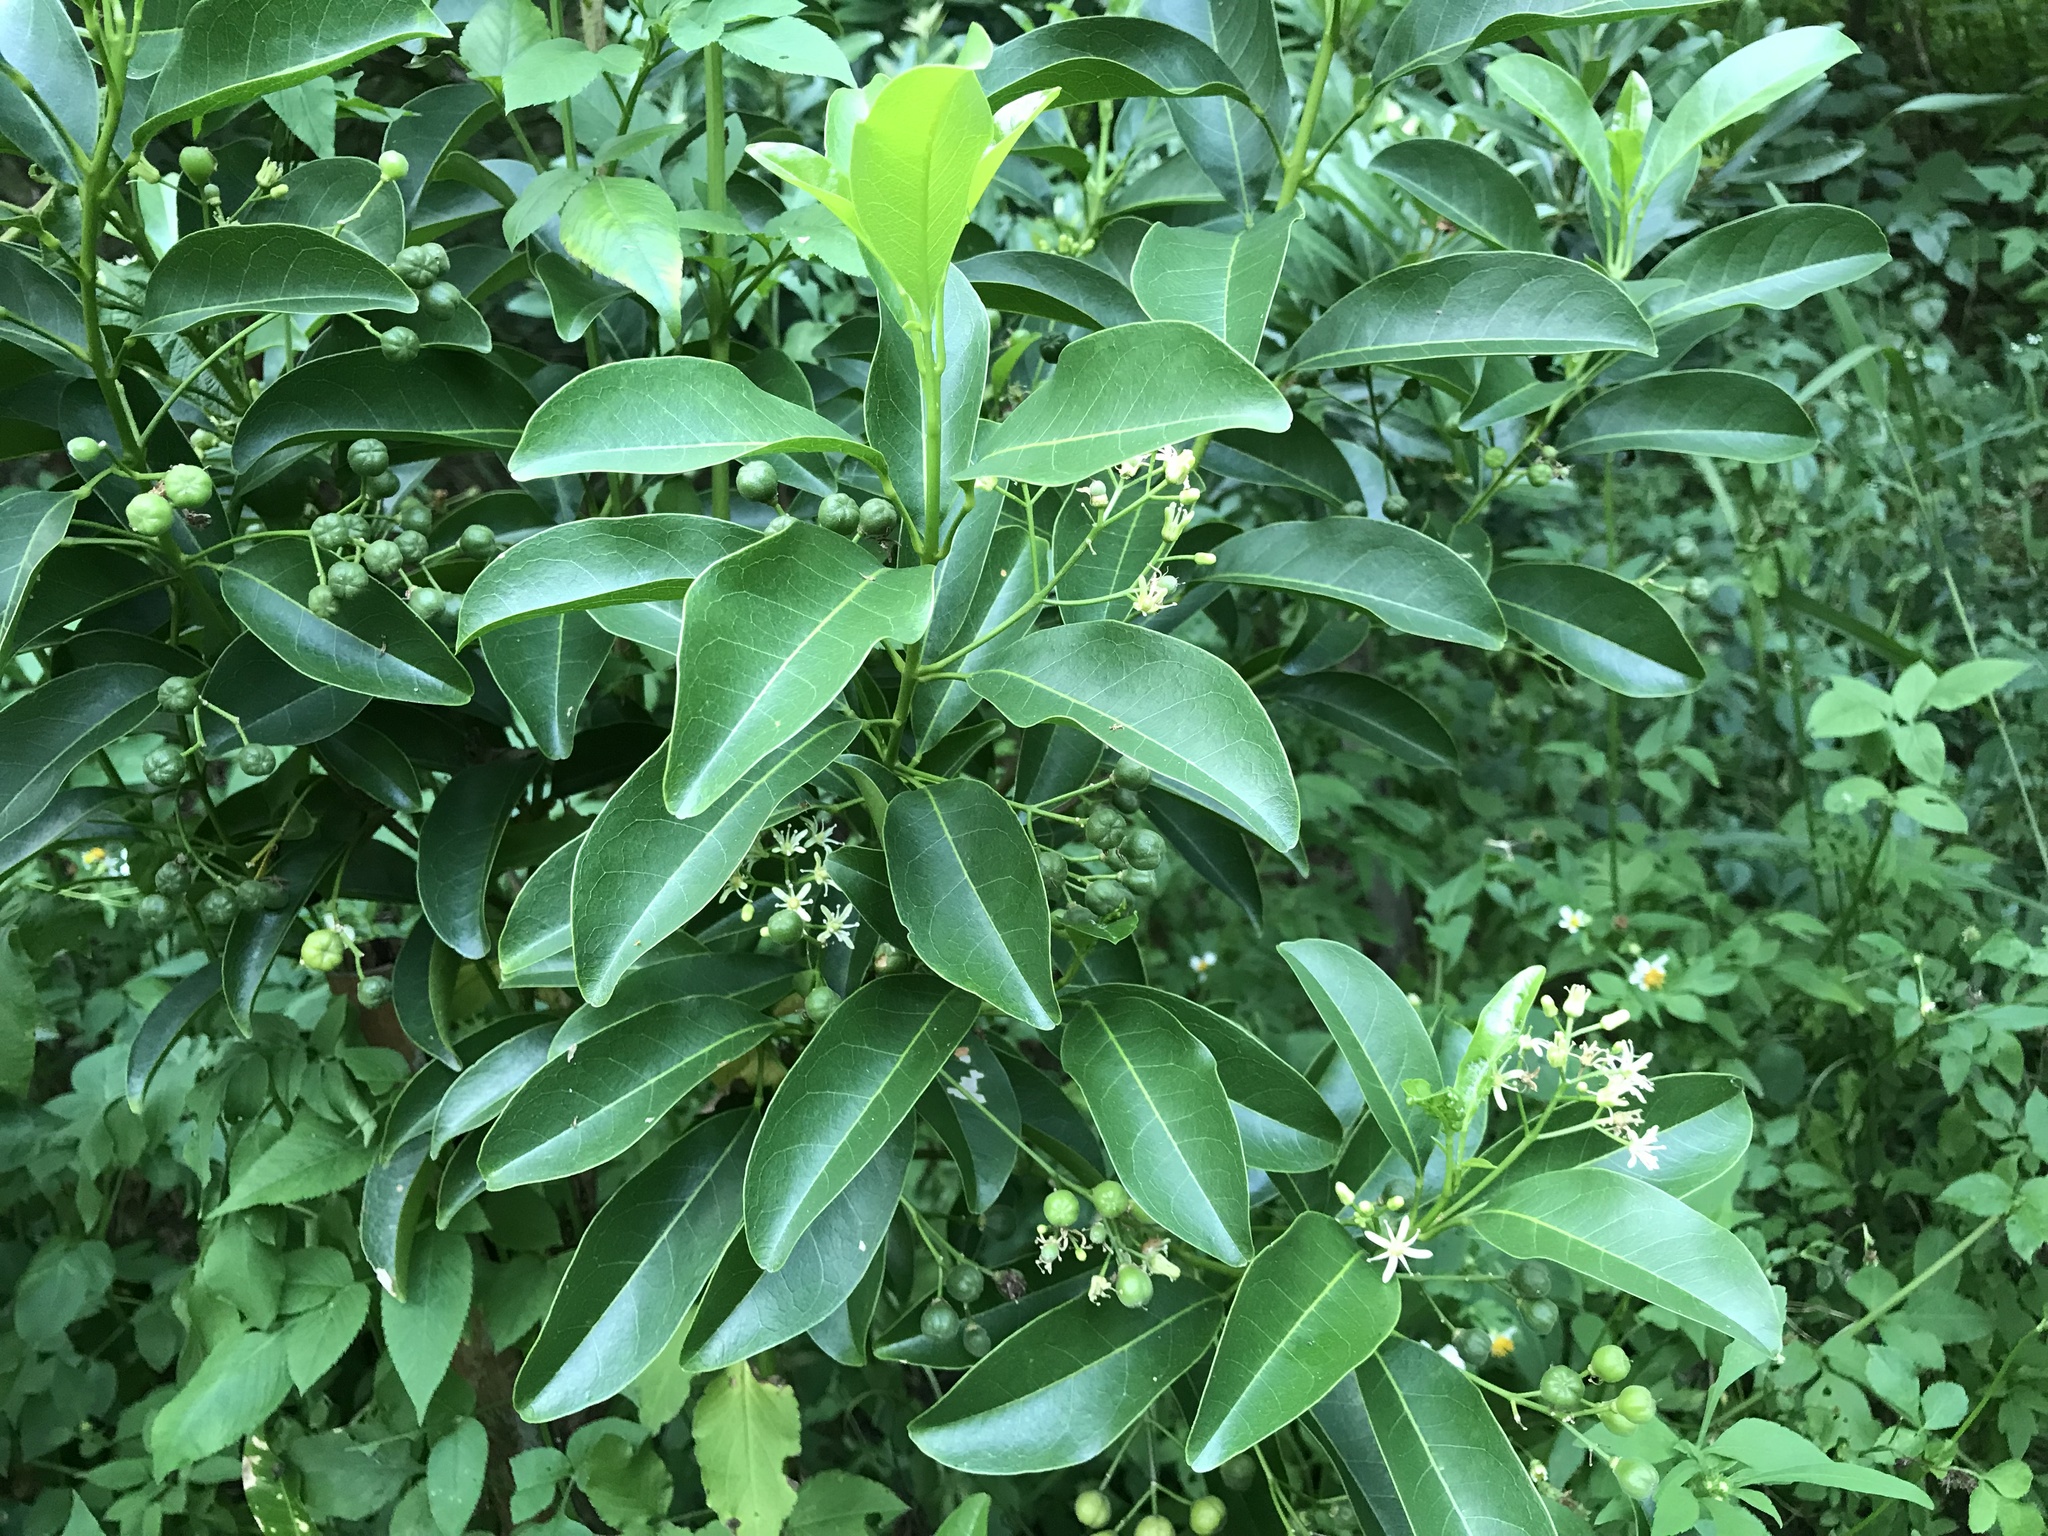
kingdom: Plantae
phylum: Tracheophyta
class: Magnoliopsida
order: Sapindales
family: Rutaceae
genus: Acronychia
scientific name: Acronychia pedunculata
